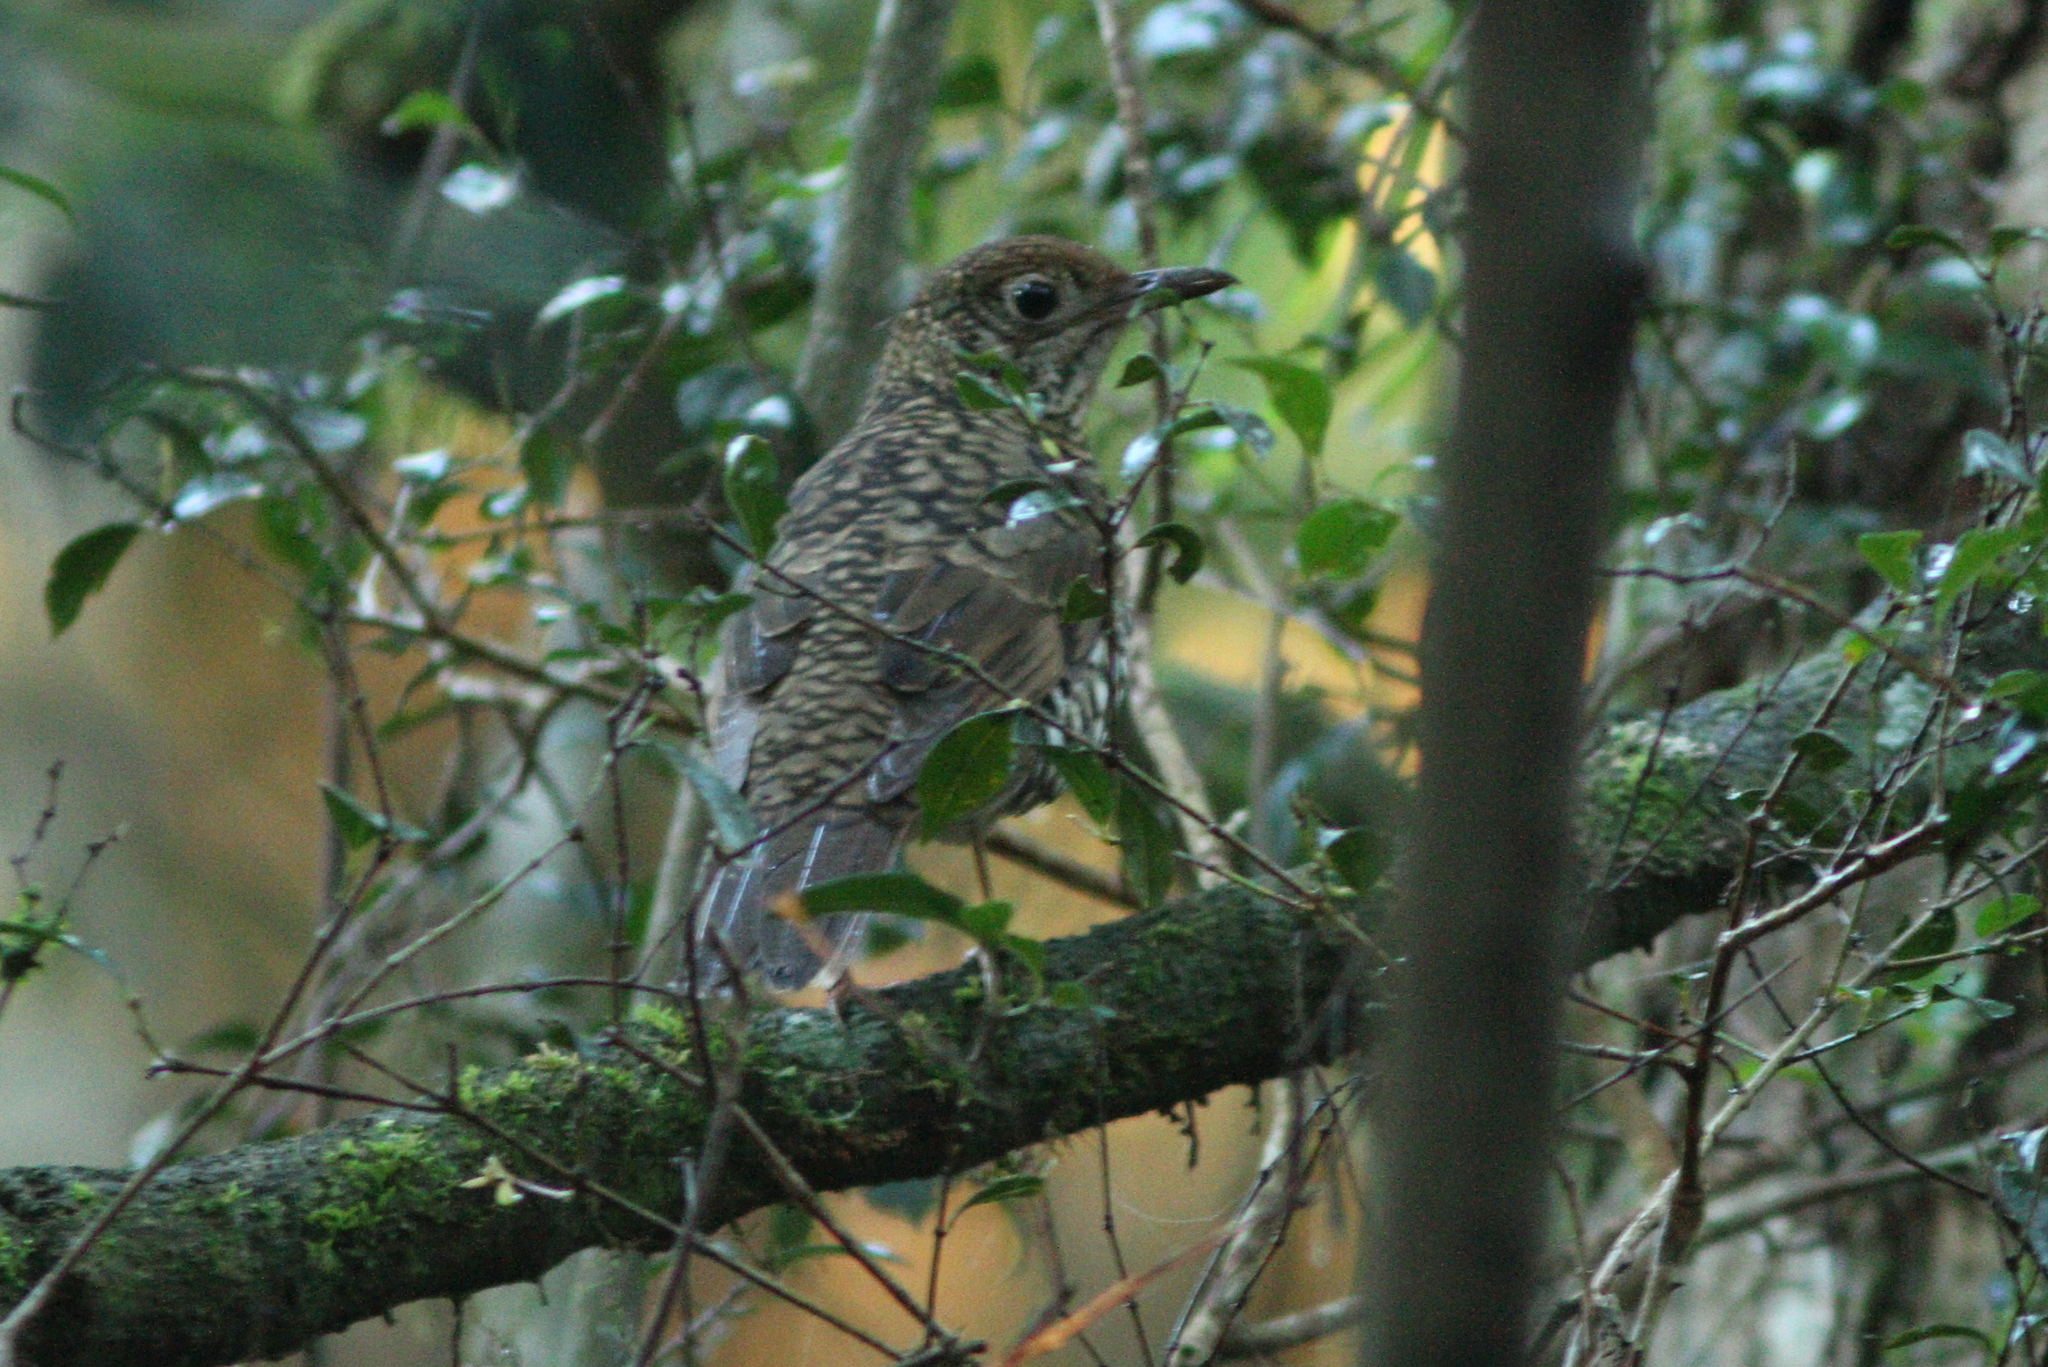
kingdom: Animalia
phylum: Chordata
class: Aves
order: Passeriformes
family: Turdidae
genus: Zoothera
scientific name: Zoothera lunulata
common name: Bassian thrush
